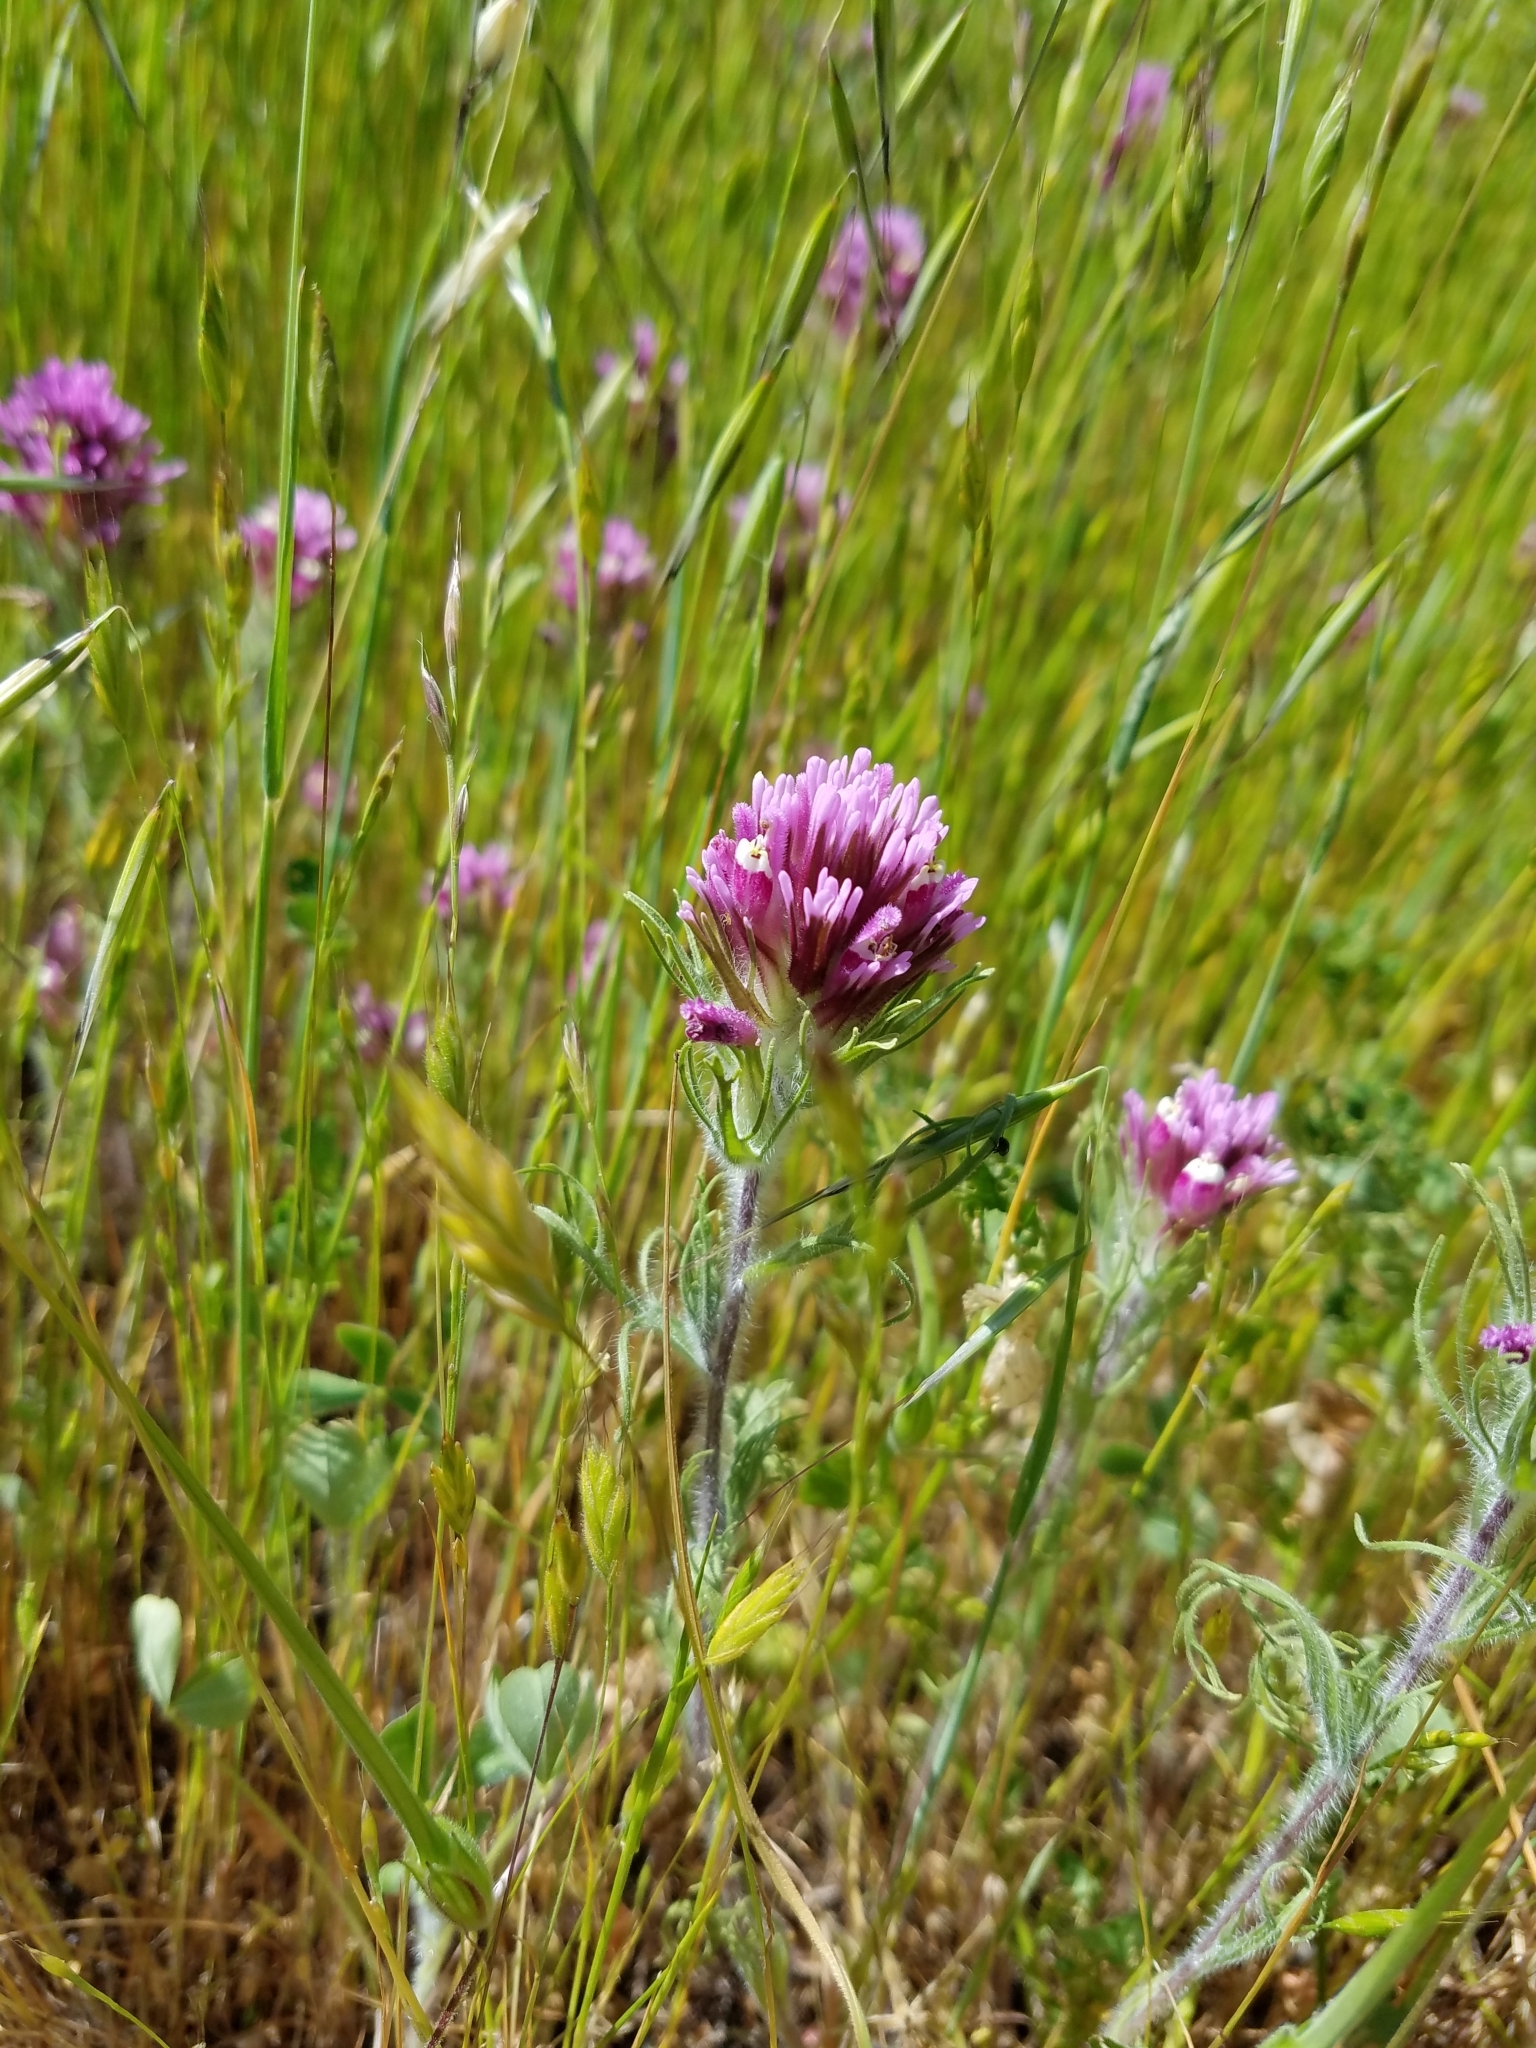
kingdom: Plantae
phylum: Tracheophyta
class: Magnoliopsida
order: Lamiales
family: Orobanchaceae
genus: Castilleja
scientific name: Castilleja exserta
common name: Purple owl-clover
